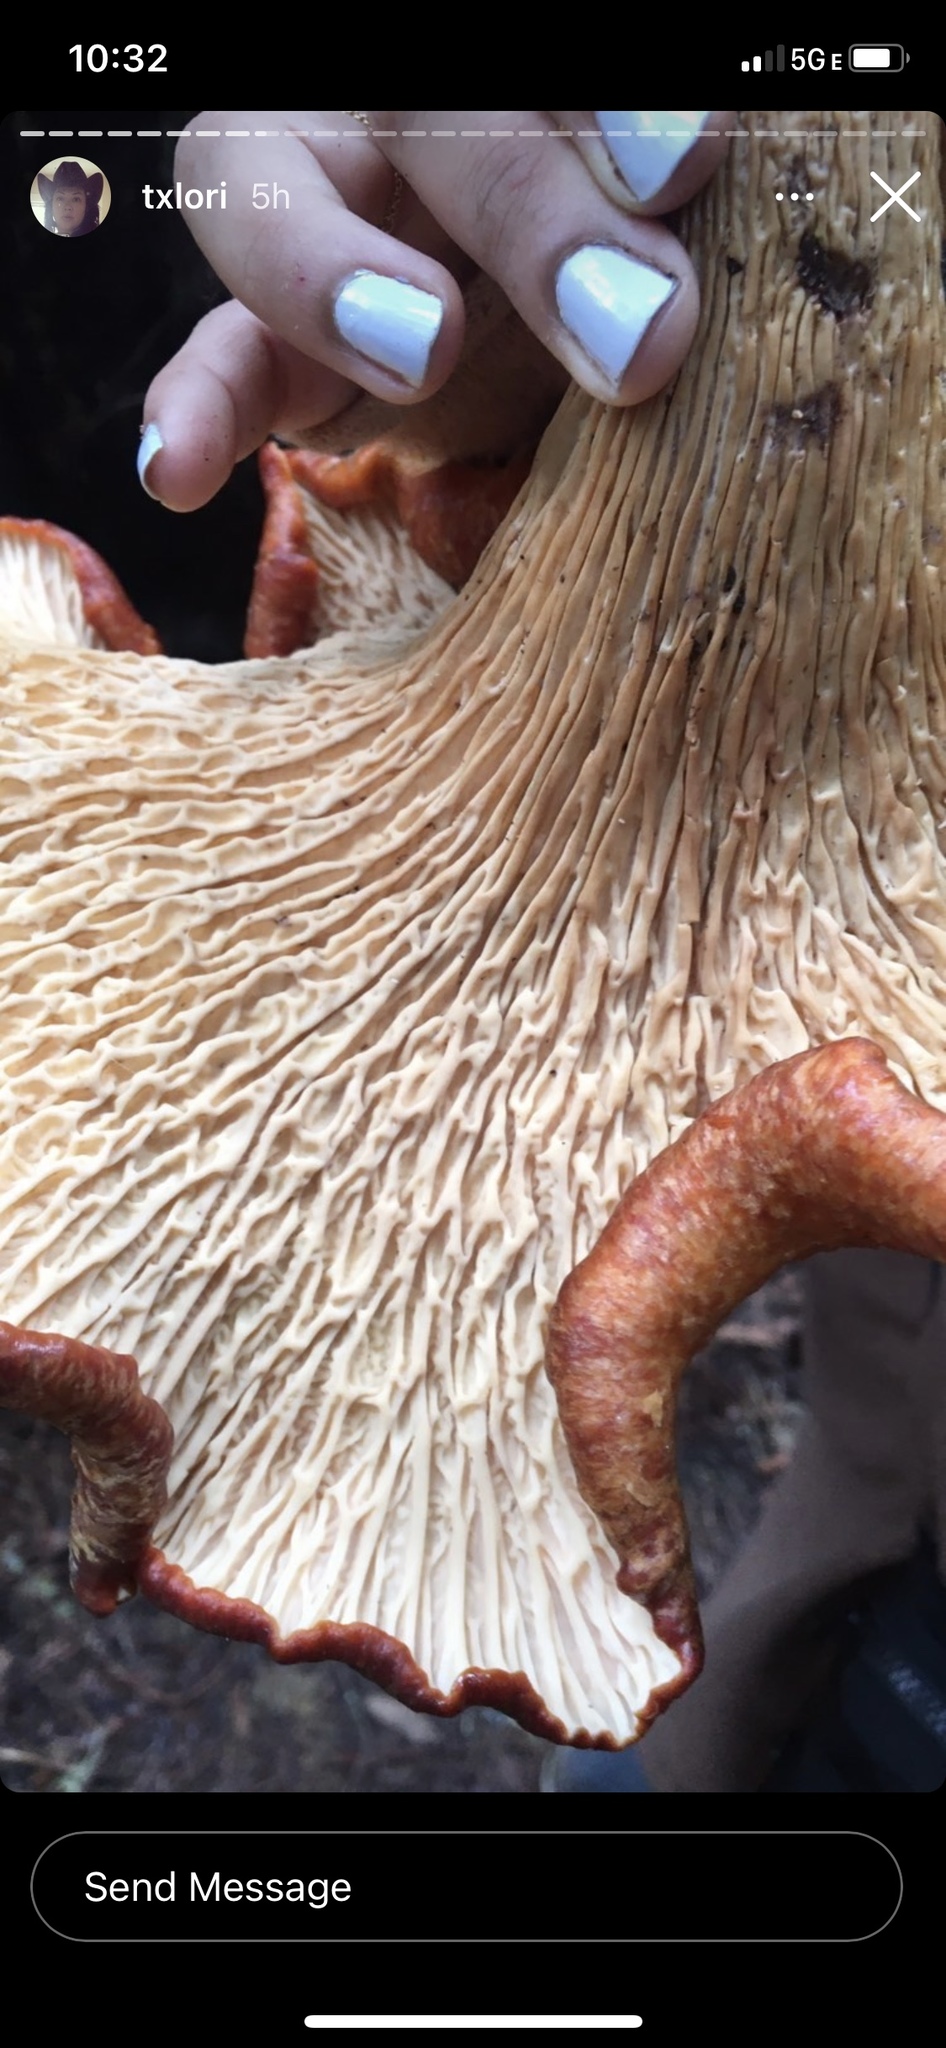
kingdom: Fungi
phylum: Basidiomycota
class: Agaricomycetes
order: Gomphales
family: Gomphaceae
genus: Turbinellus
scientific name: Turbinellus floccosus
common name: Scaly chanterelle
